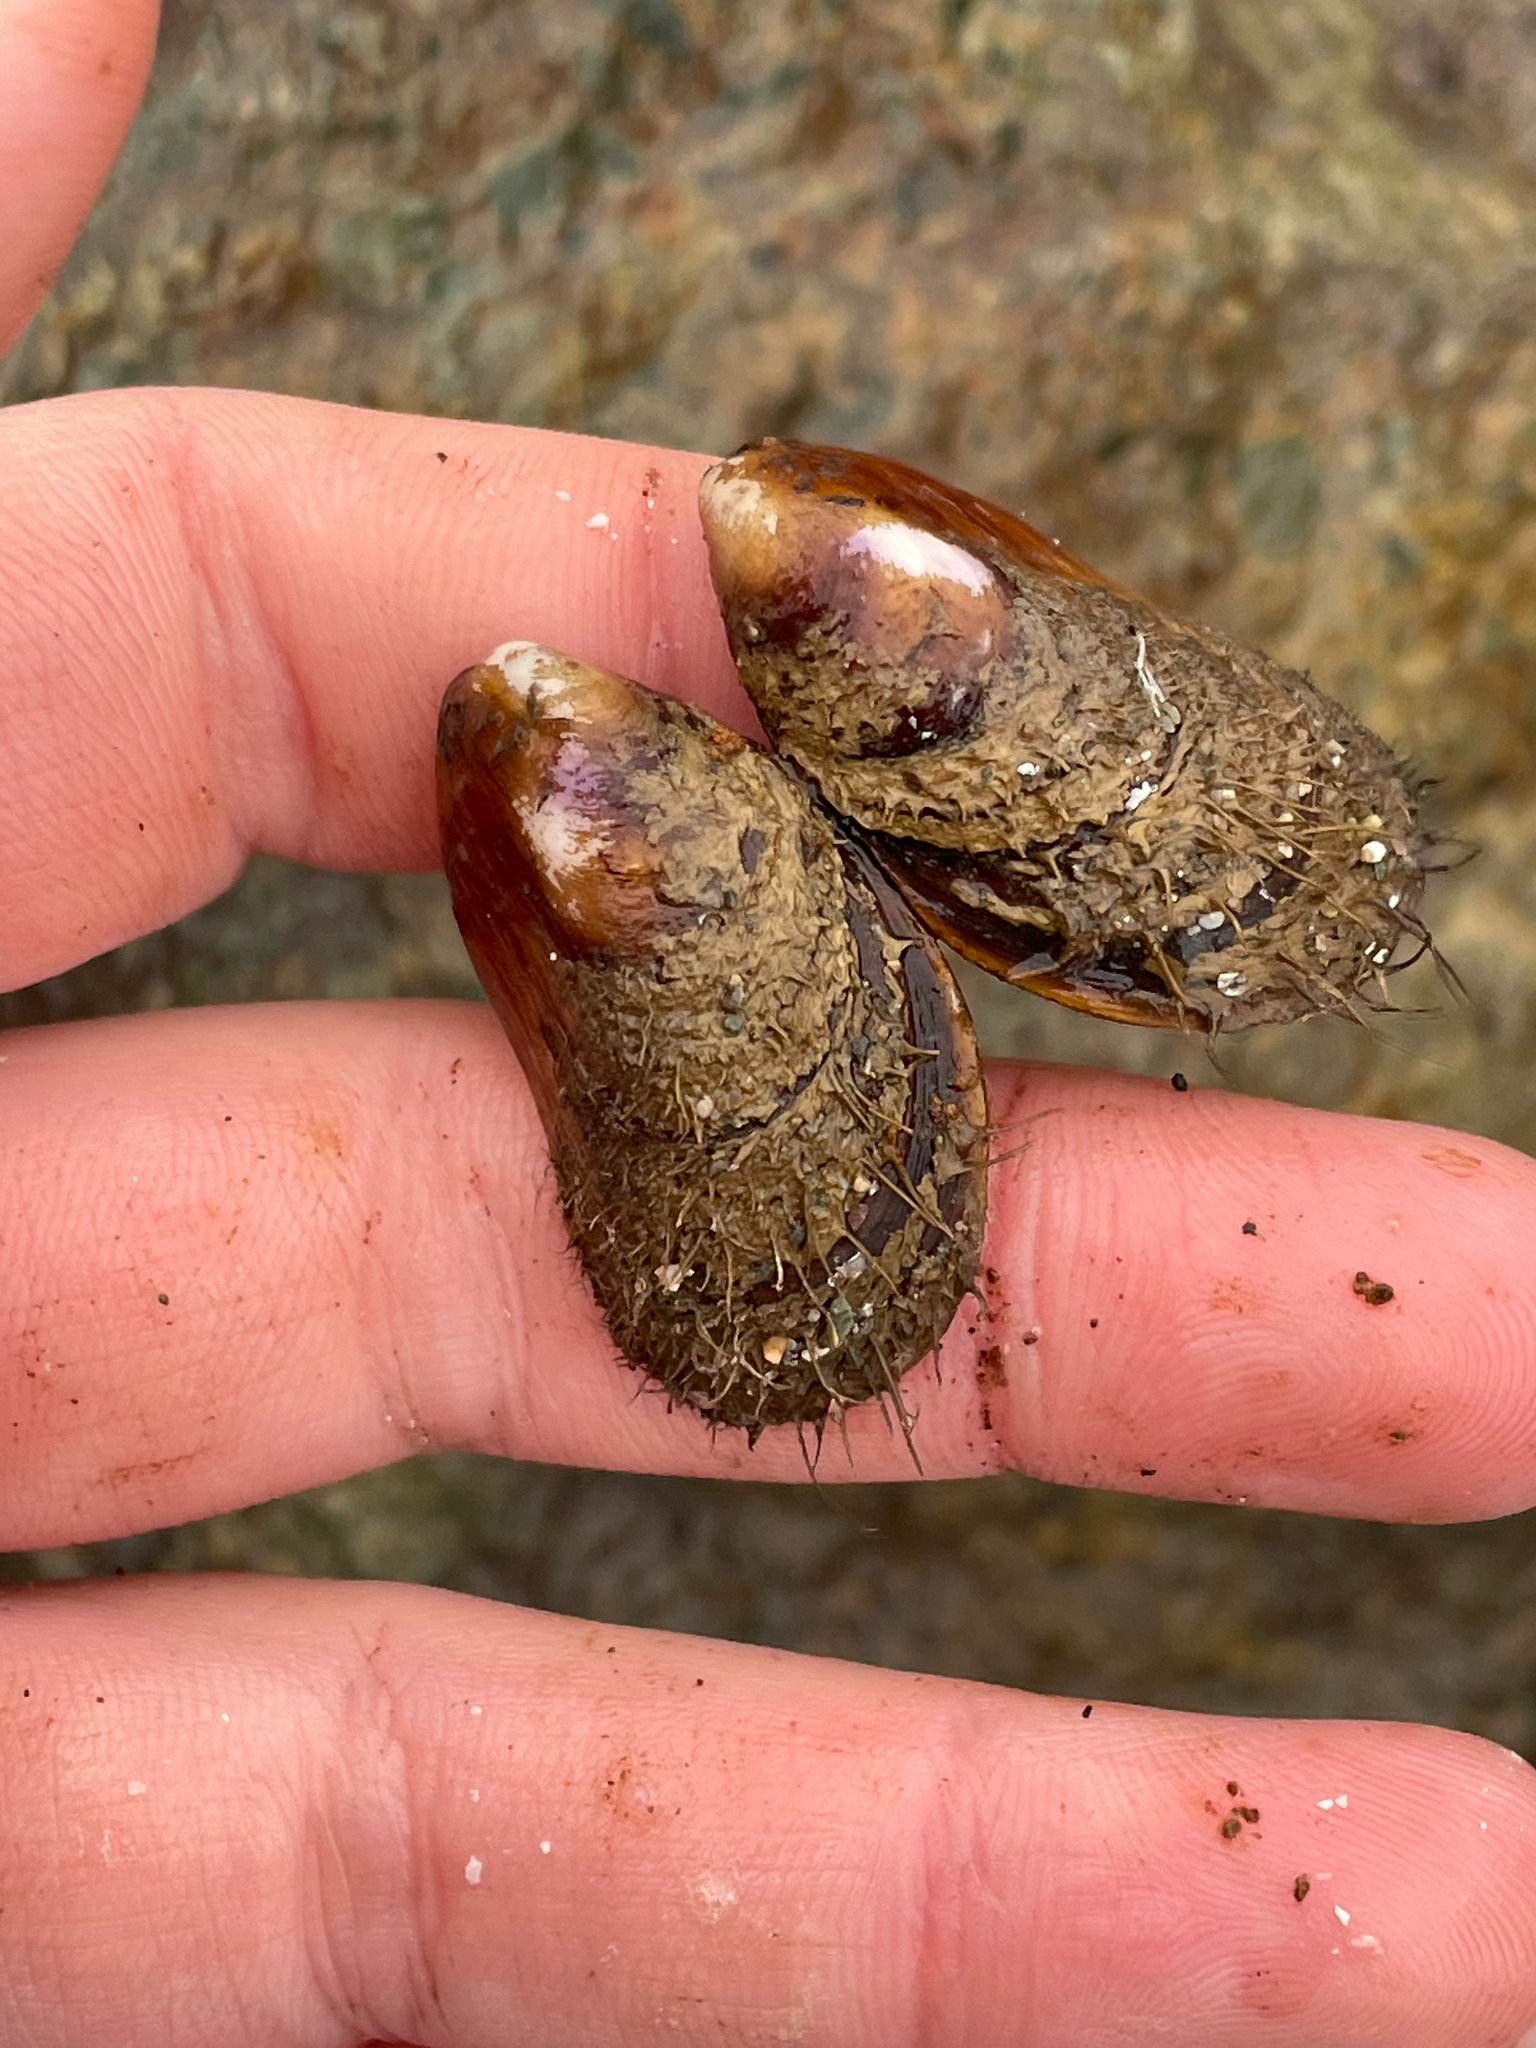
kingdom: Animalia
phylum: Mollusca
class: Bivalvia
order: Mytilida
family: Mytilidae
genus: Modiolus
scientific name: Modiolus modiolus
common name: Horse-mussel
